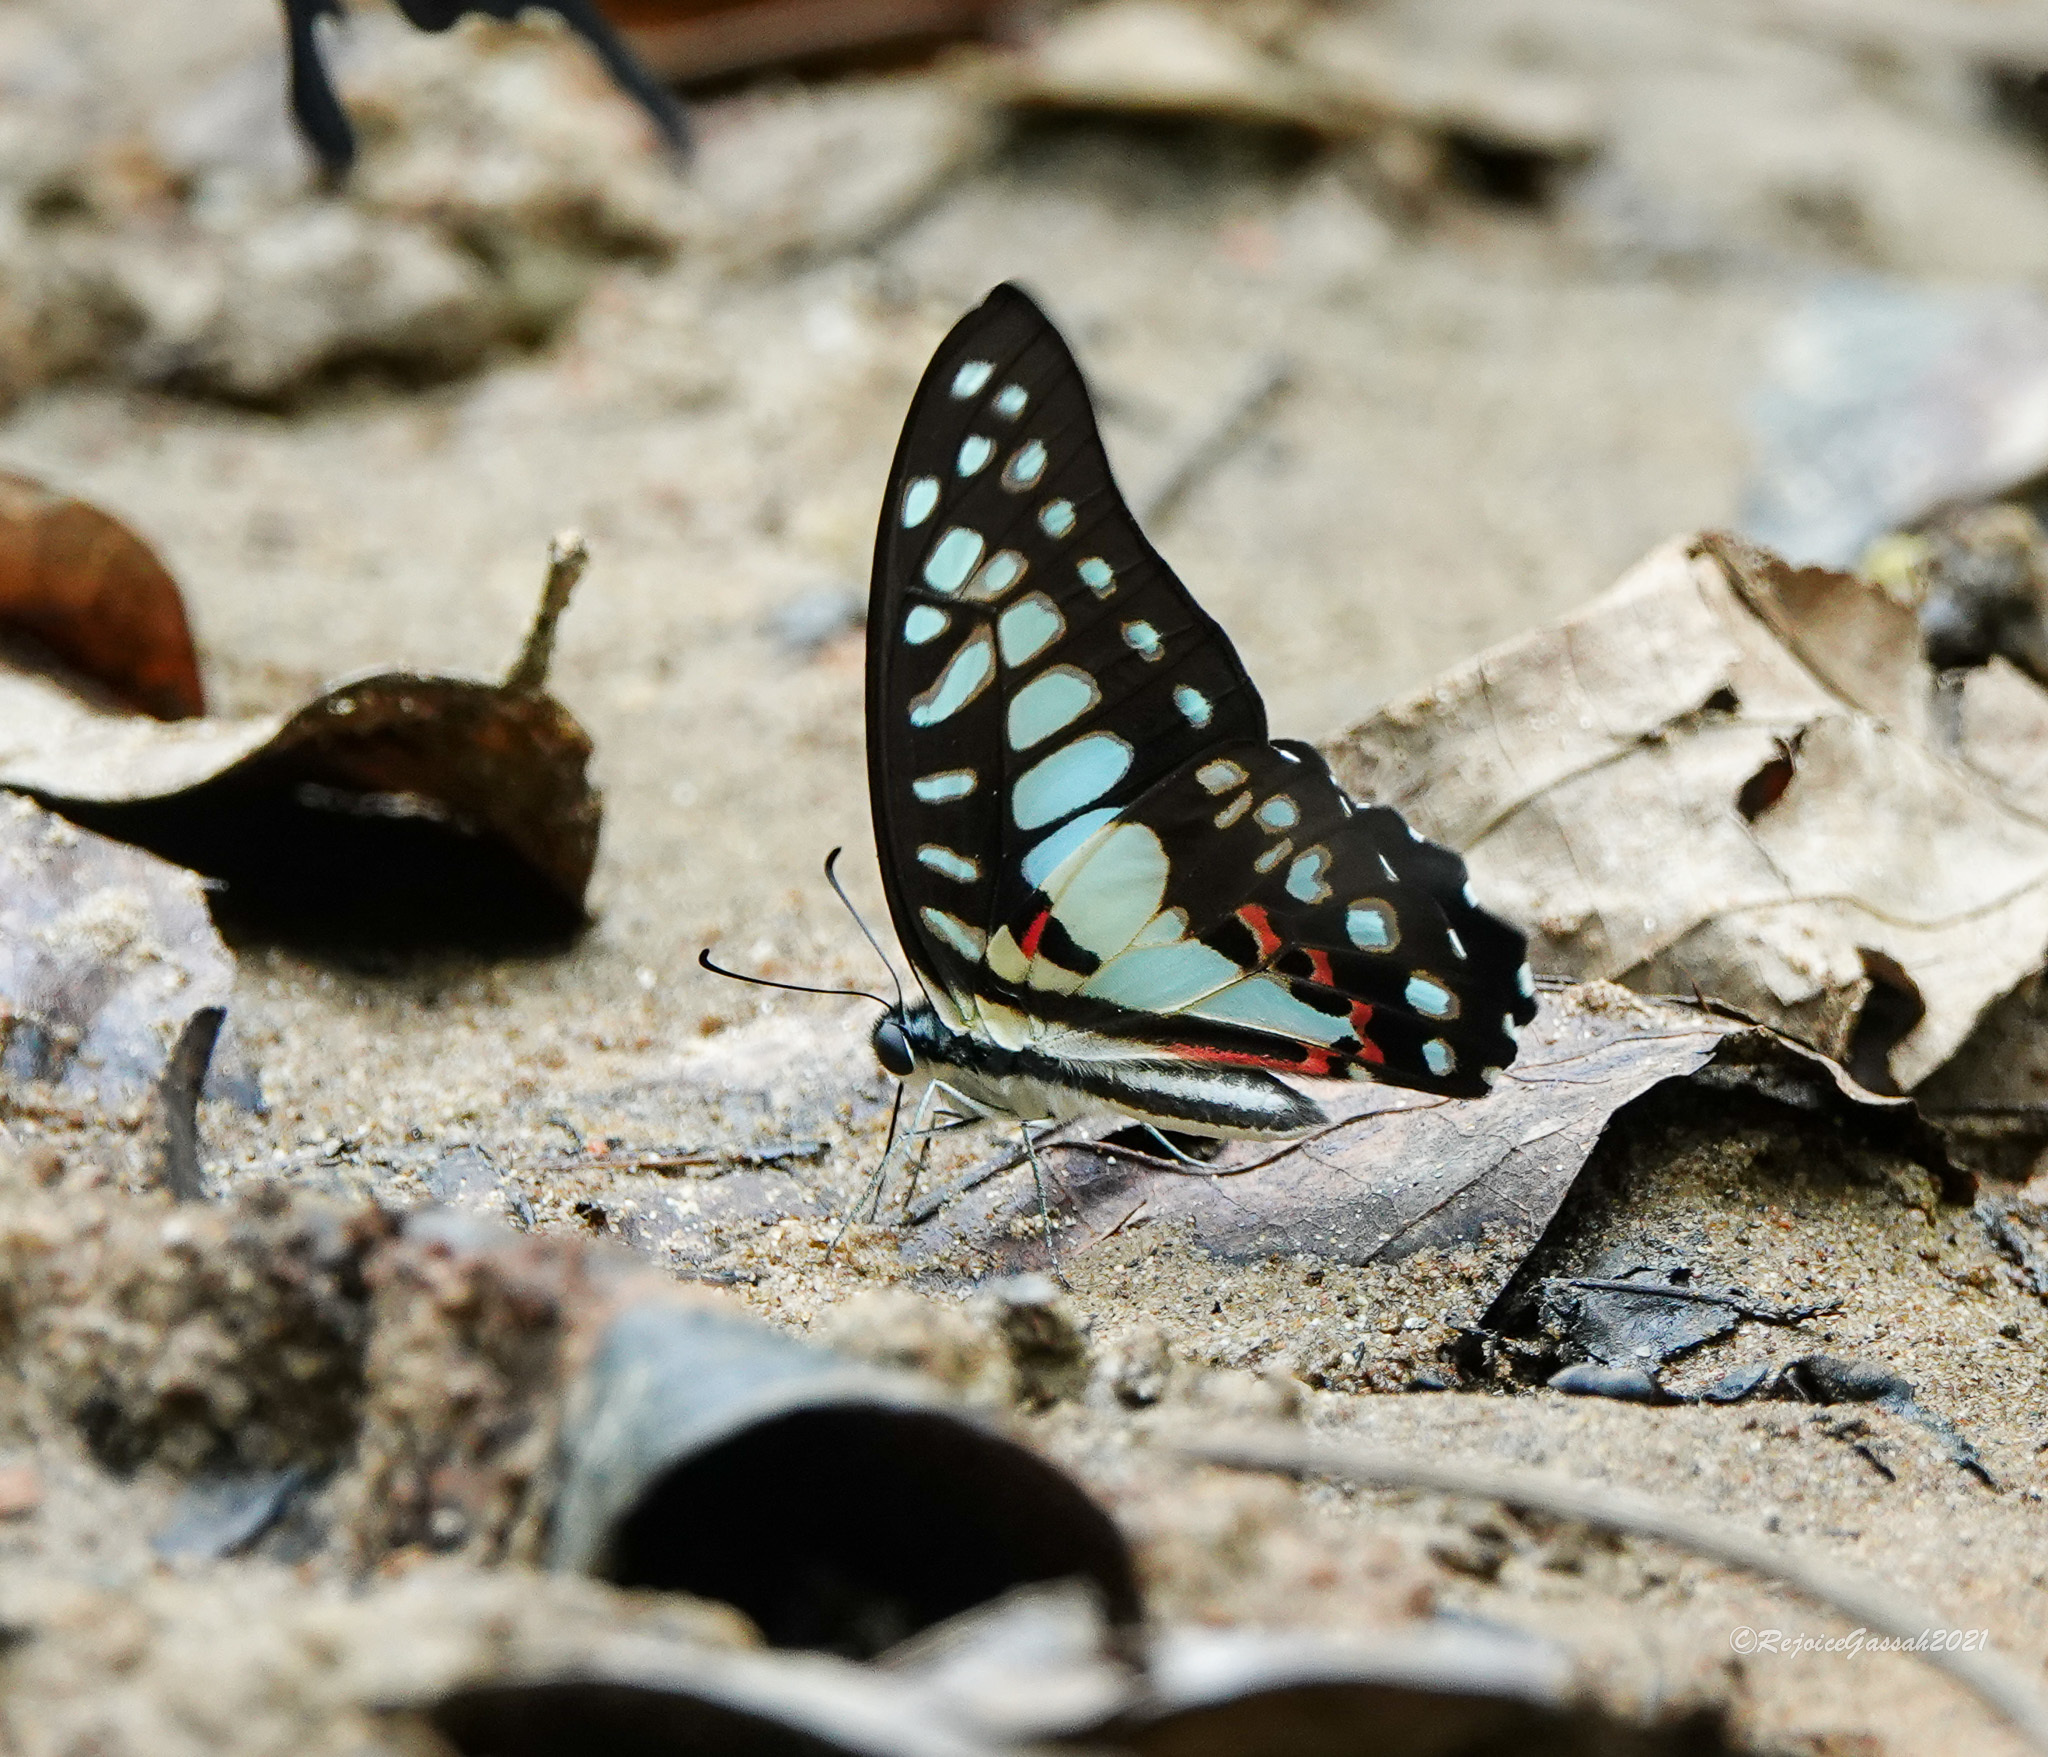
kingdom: Animalia
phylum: Arthropoda
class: Insecta
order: Lepidoptera
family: Papilionidae
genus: Graphium
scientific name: Graphium doson
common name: Common jay
